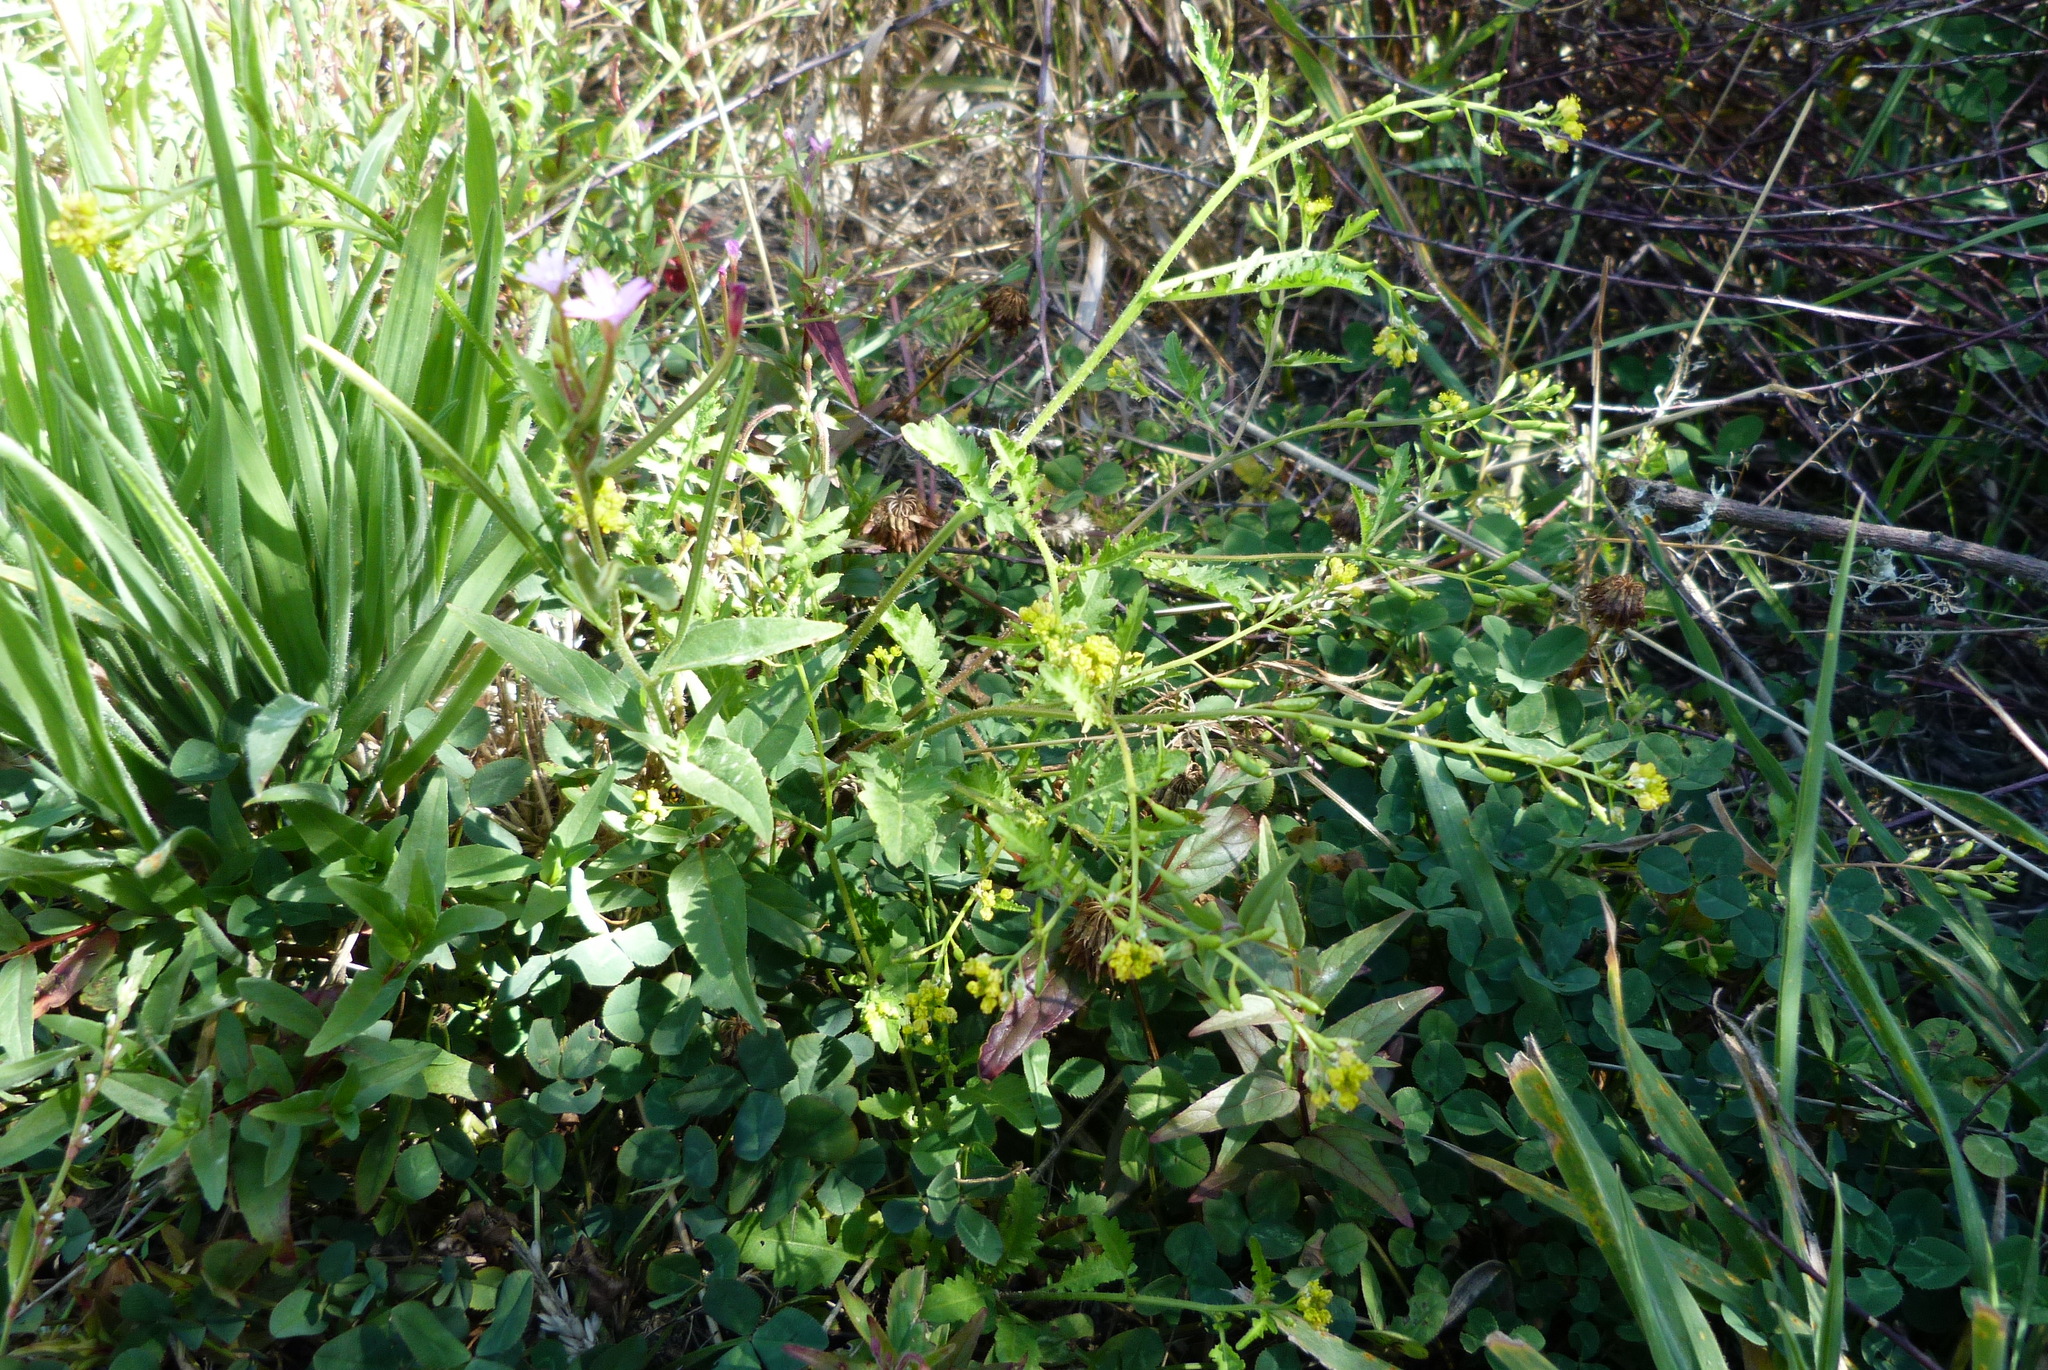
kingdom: Plantae
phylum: Tracheophyta
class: Magnoliopsida
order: Brassicales
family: Brassicaceae
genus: Rorippa
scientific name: Rorippa palustris
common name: Marsh yellow-cress
